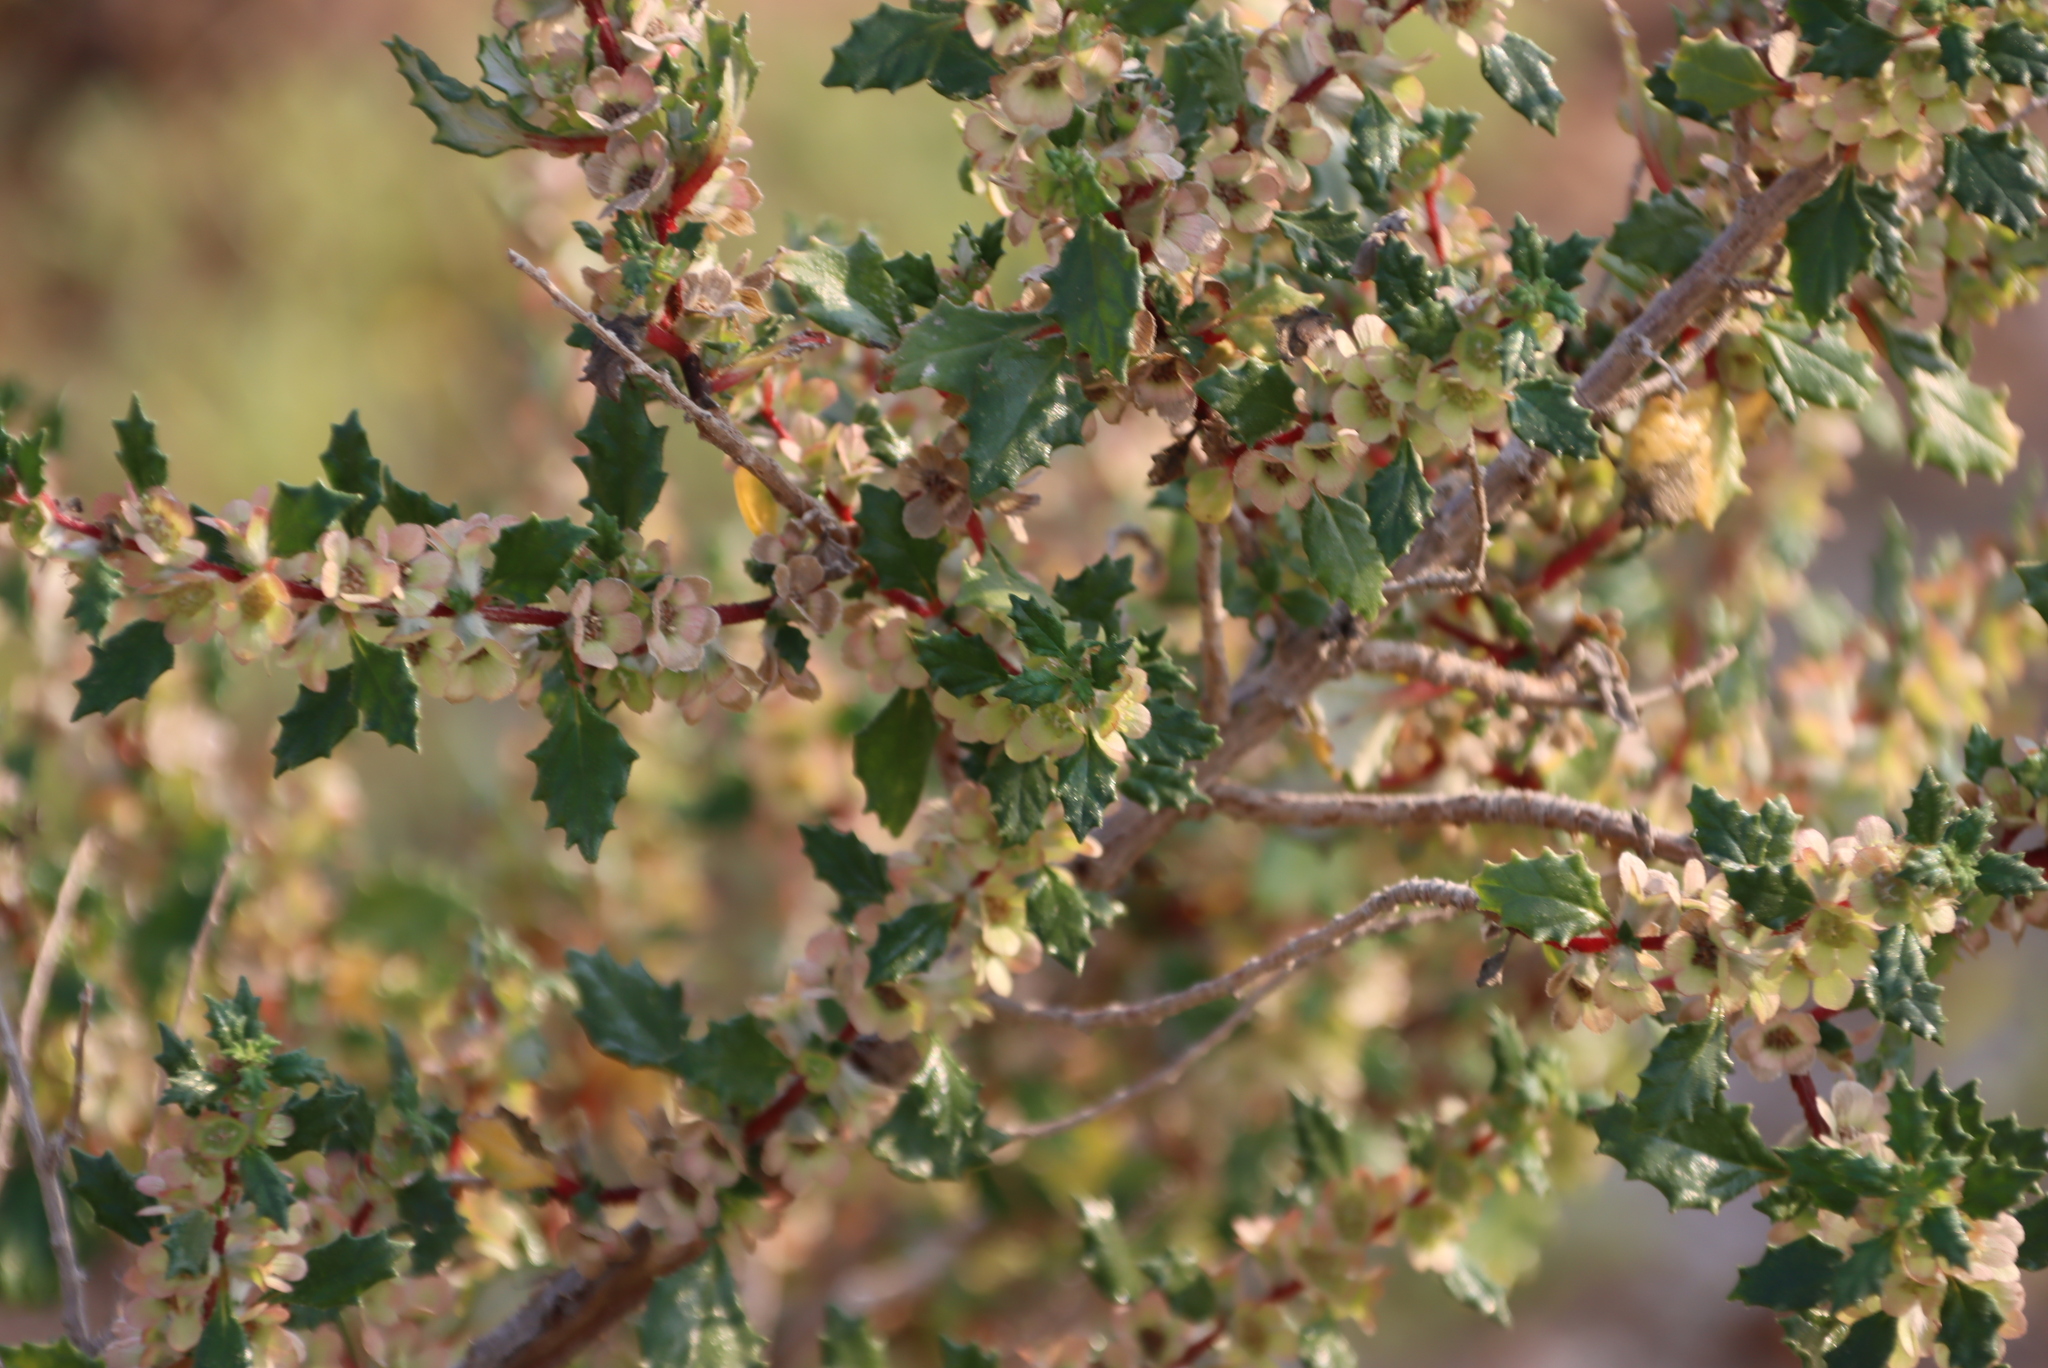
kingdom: Plantae
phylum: Tracheophyta
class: Magnoliopsida
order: Rosales
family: Urticaceae
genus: Forsskaolea
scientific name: Forsskaolea candida
